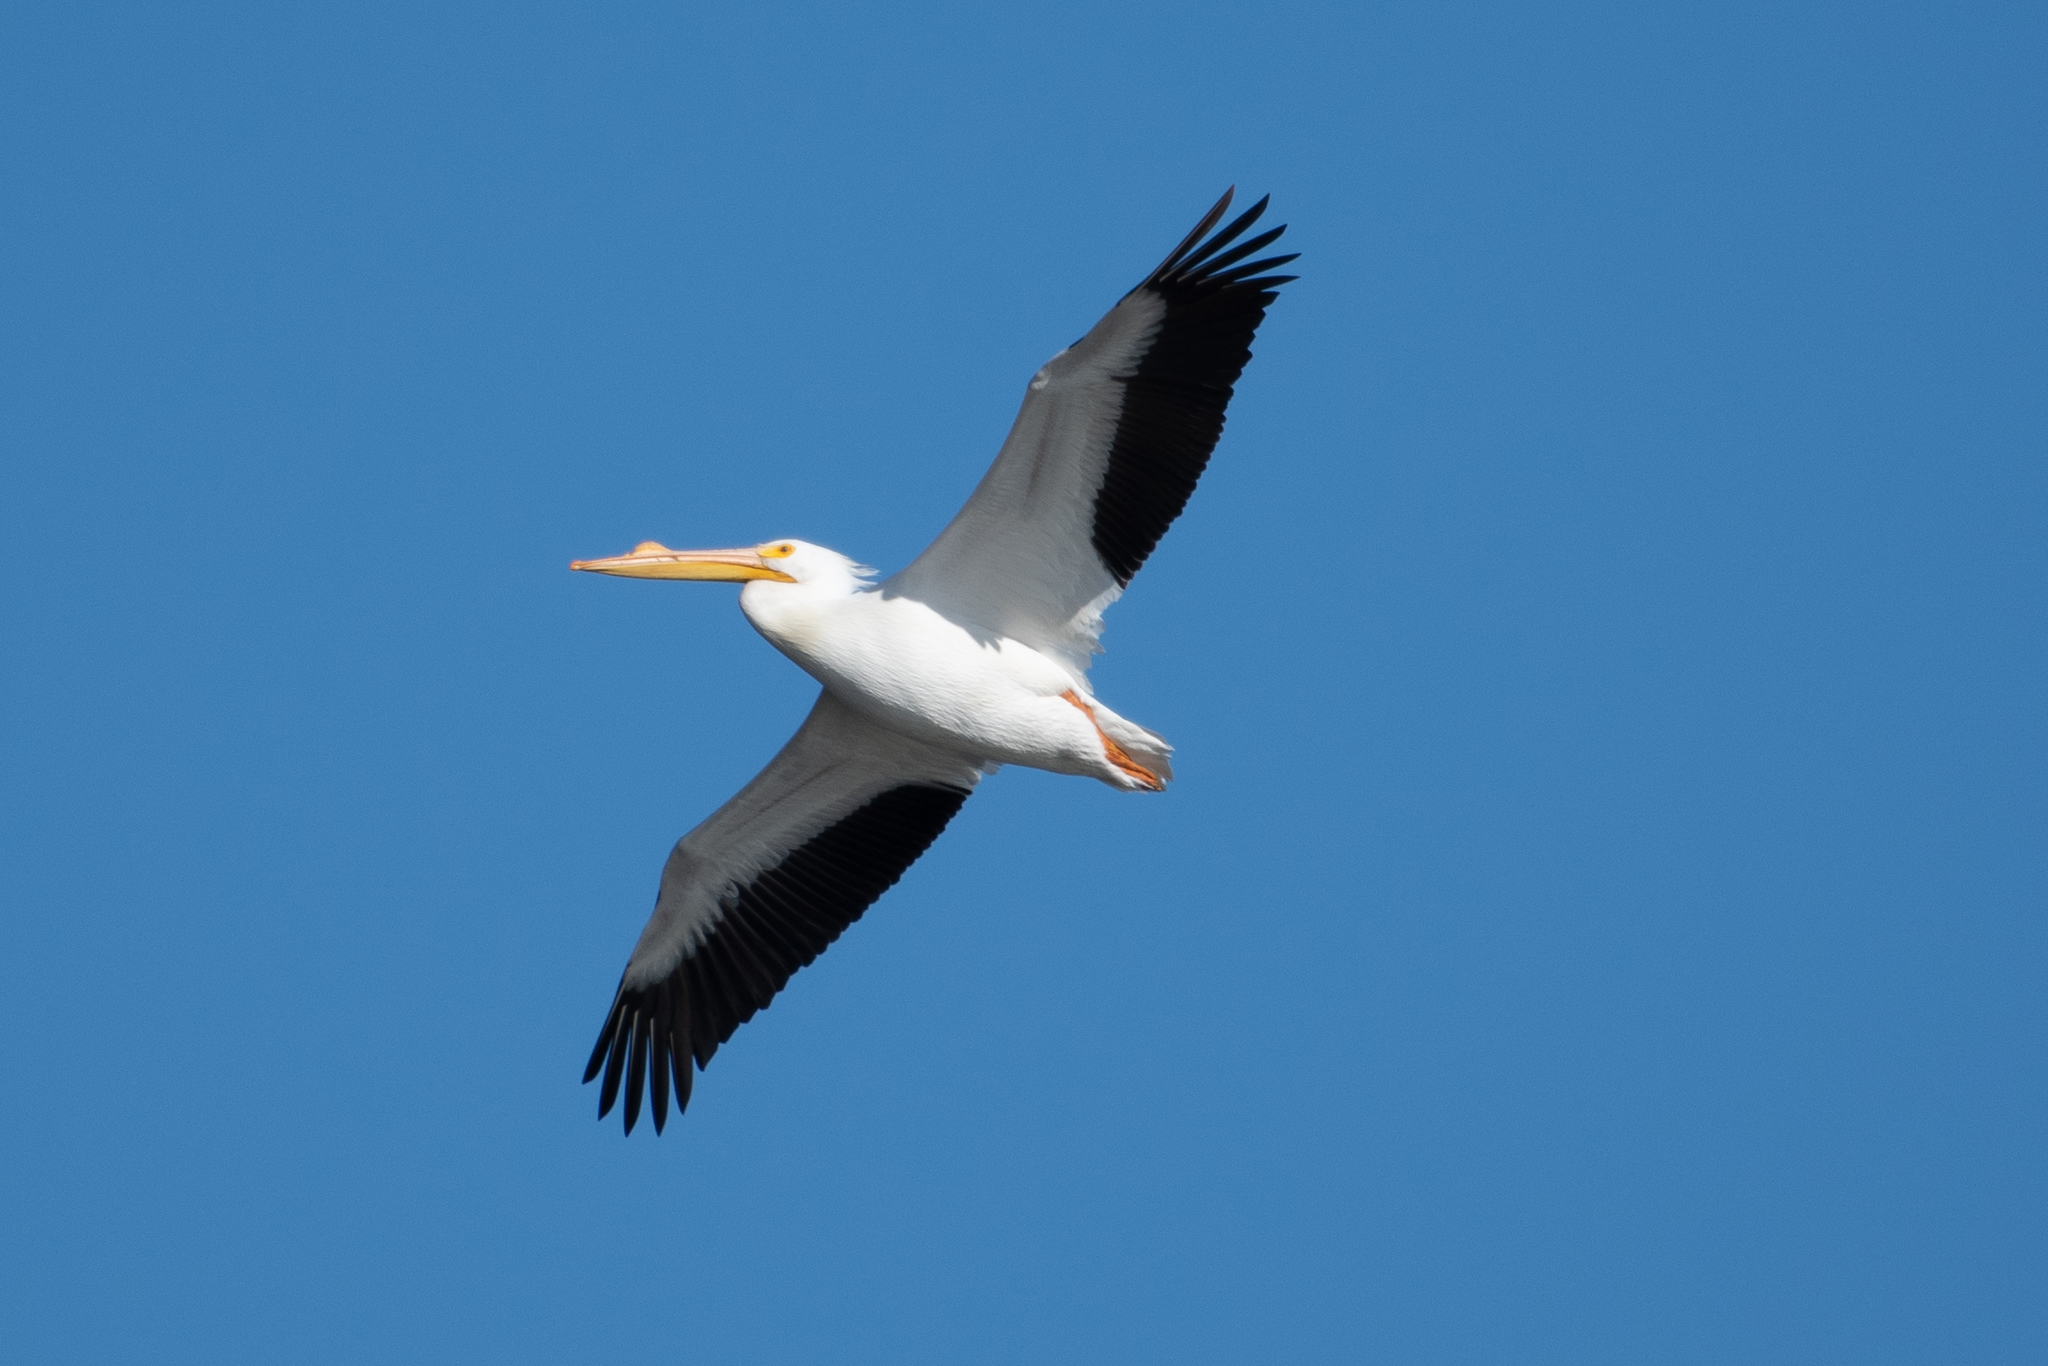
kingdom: Animalia
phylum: Chordata
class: Aves
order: Pelecaniformes
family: Pelecanidae
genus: Pelecanus
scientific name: Pelecanus erythrorhynchos
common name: American white pelican
